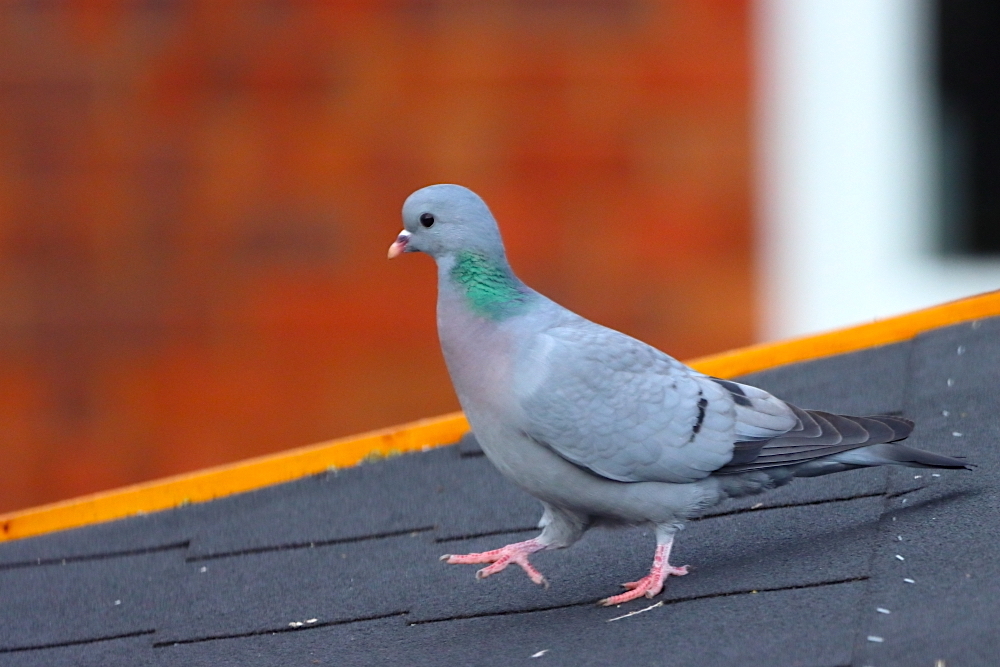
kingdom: Animalia
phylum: Chordata
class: Aves
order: Columbiformes
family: Columbidae
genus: Columba
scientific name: Columba oenas
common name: Stock dove
